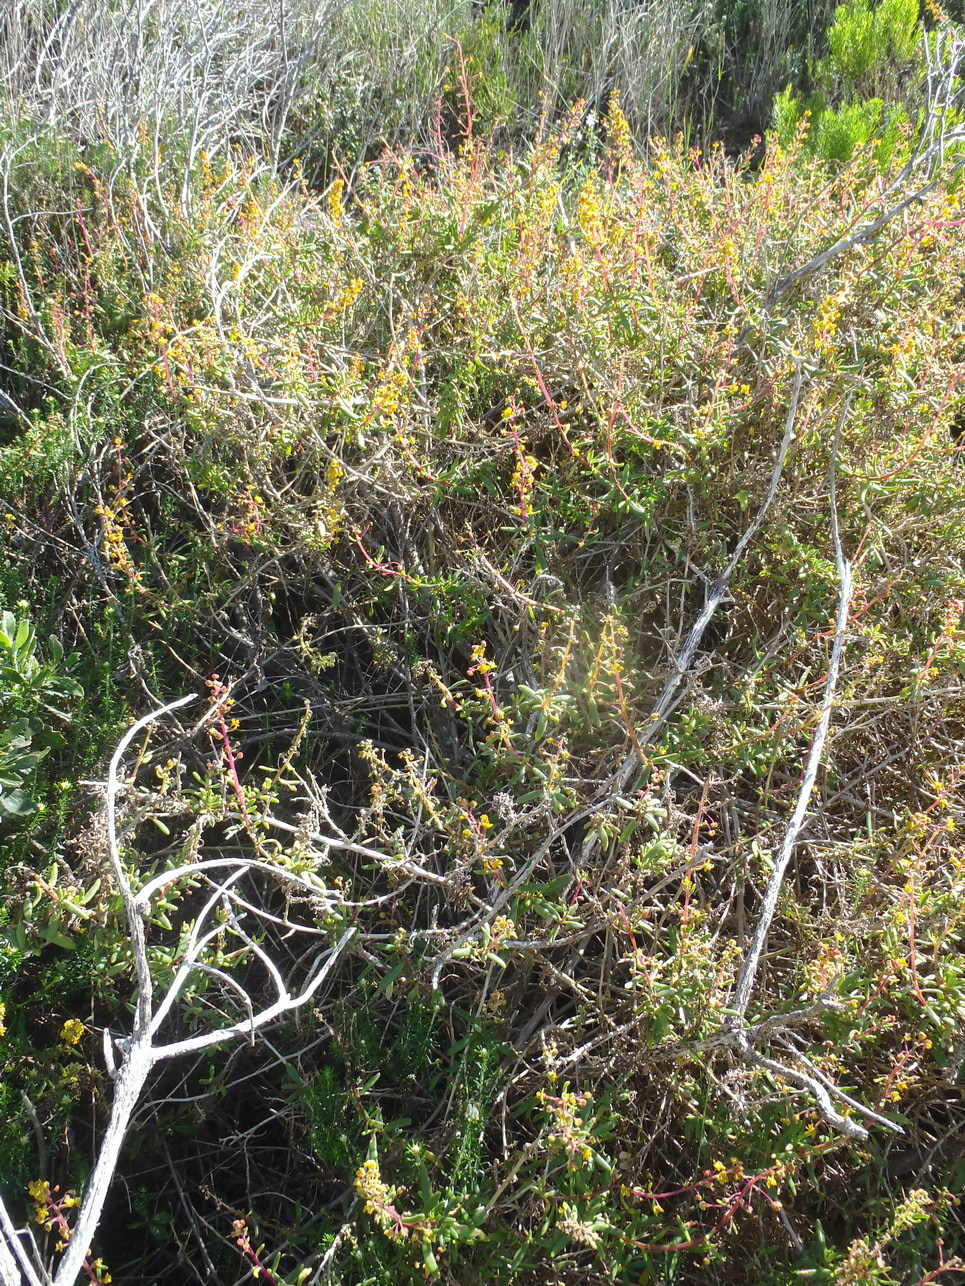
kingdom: Plantae
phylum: Tracheophyta
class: Magnoliopsida
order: Caryophyllales
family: Aizoaceae
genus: Tetragonia
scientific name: Tetragonia fruticosa
